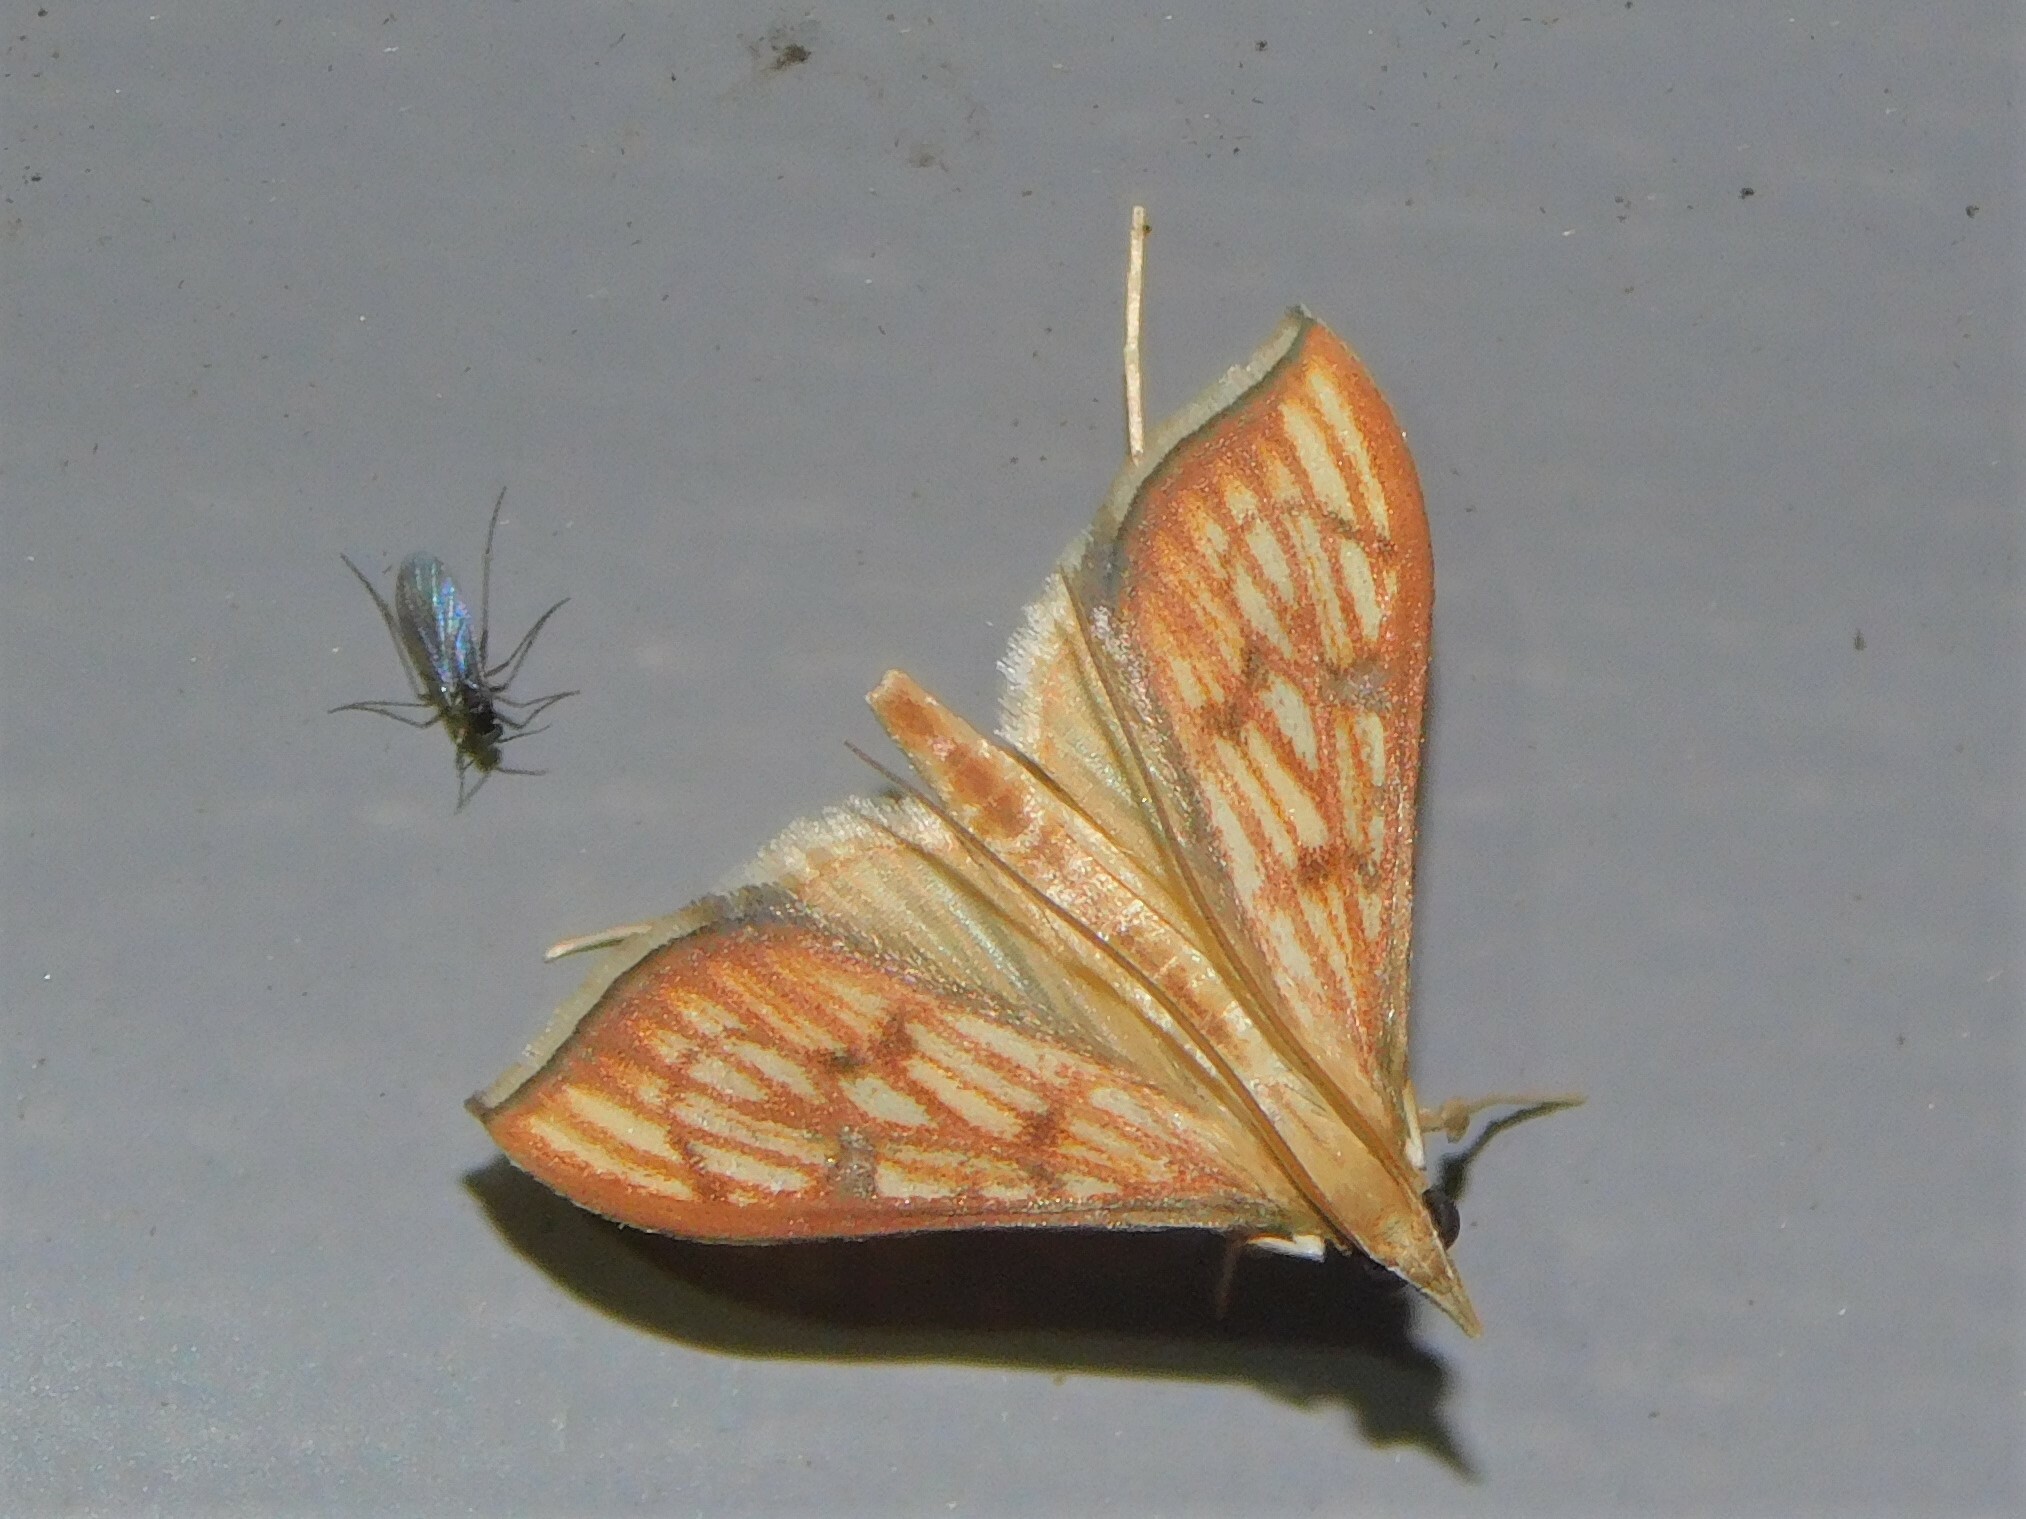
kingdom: Animalia
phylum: Arthropoda
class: Insecta
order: Lepidoptera
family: Crambidae
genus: Antigastra
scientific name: Antigastra catalaunalis
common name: Spanish dot
